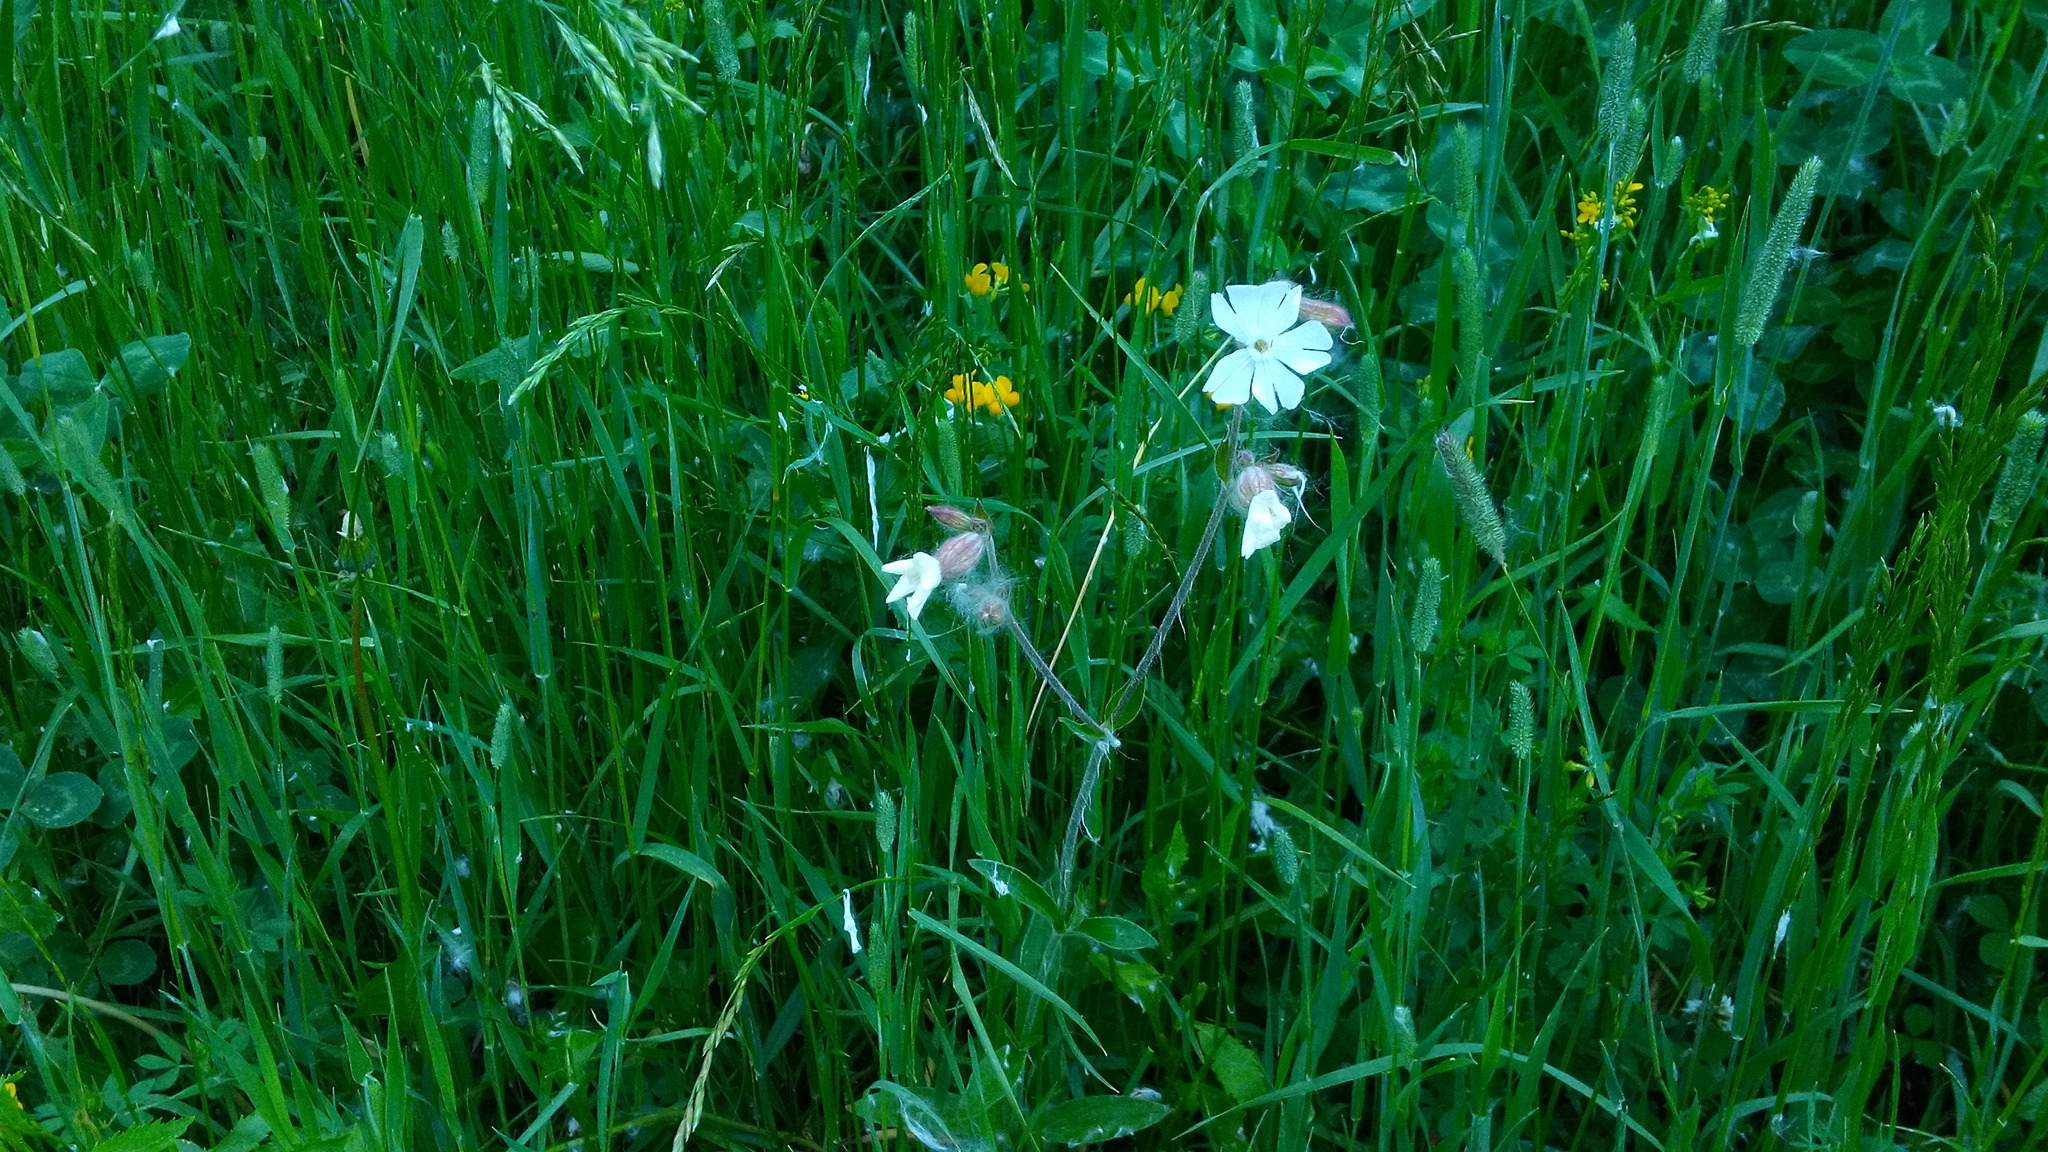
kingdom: Plantae
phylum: Tracheophyta
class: Magnoliopsida
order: Caryophyllales
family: Caryophyllaceae
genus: Silene
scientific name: Silene latifolia
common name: White campion
